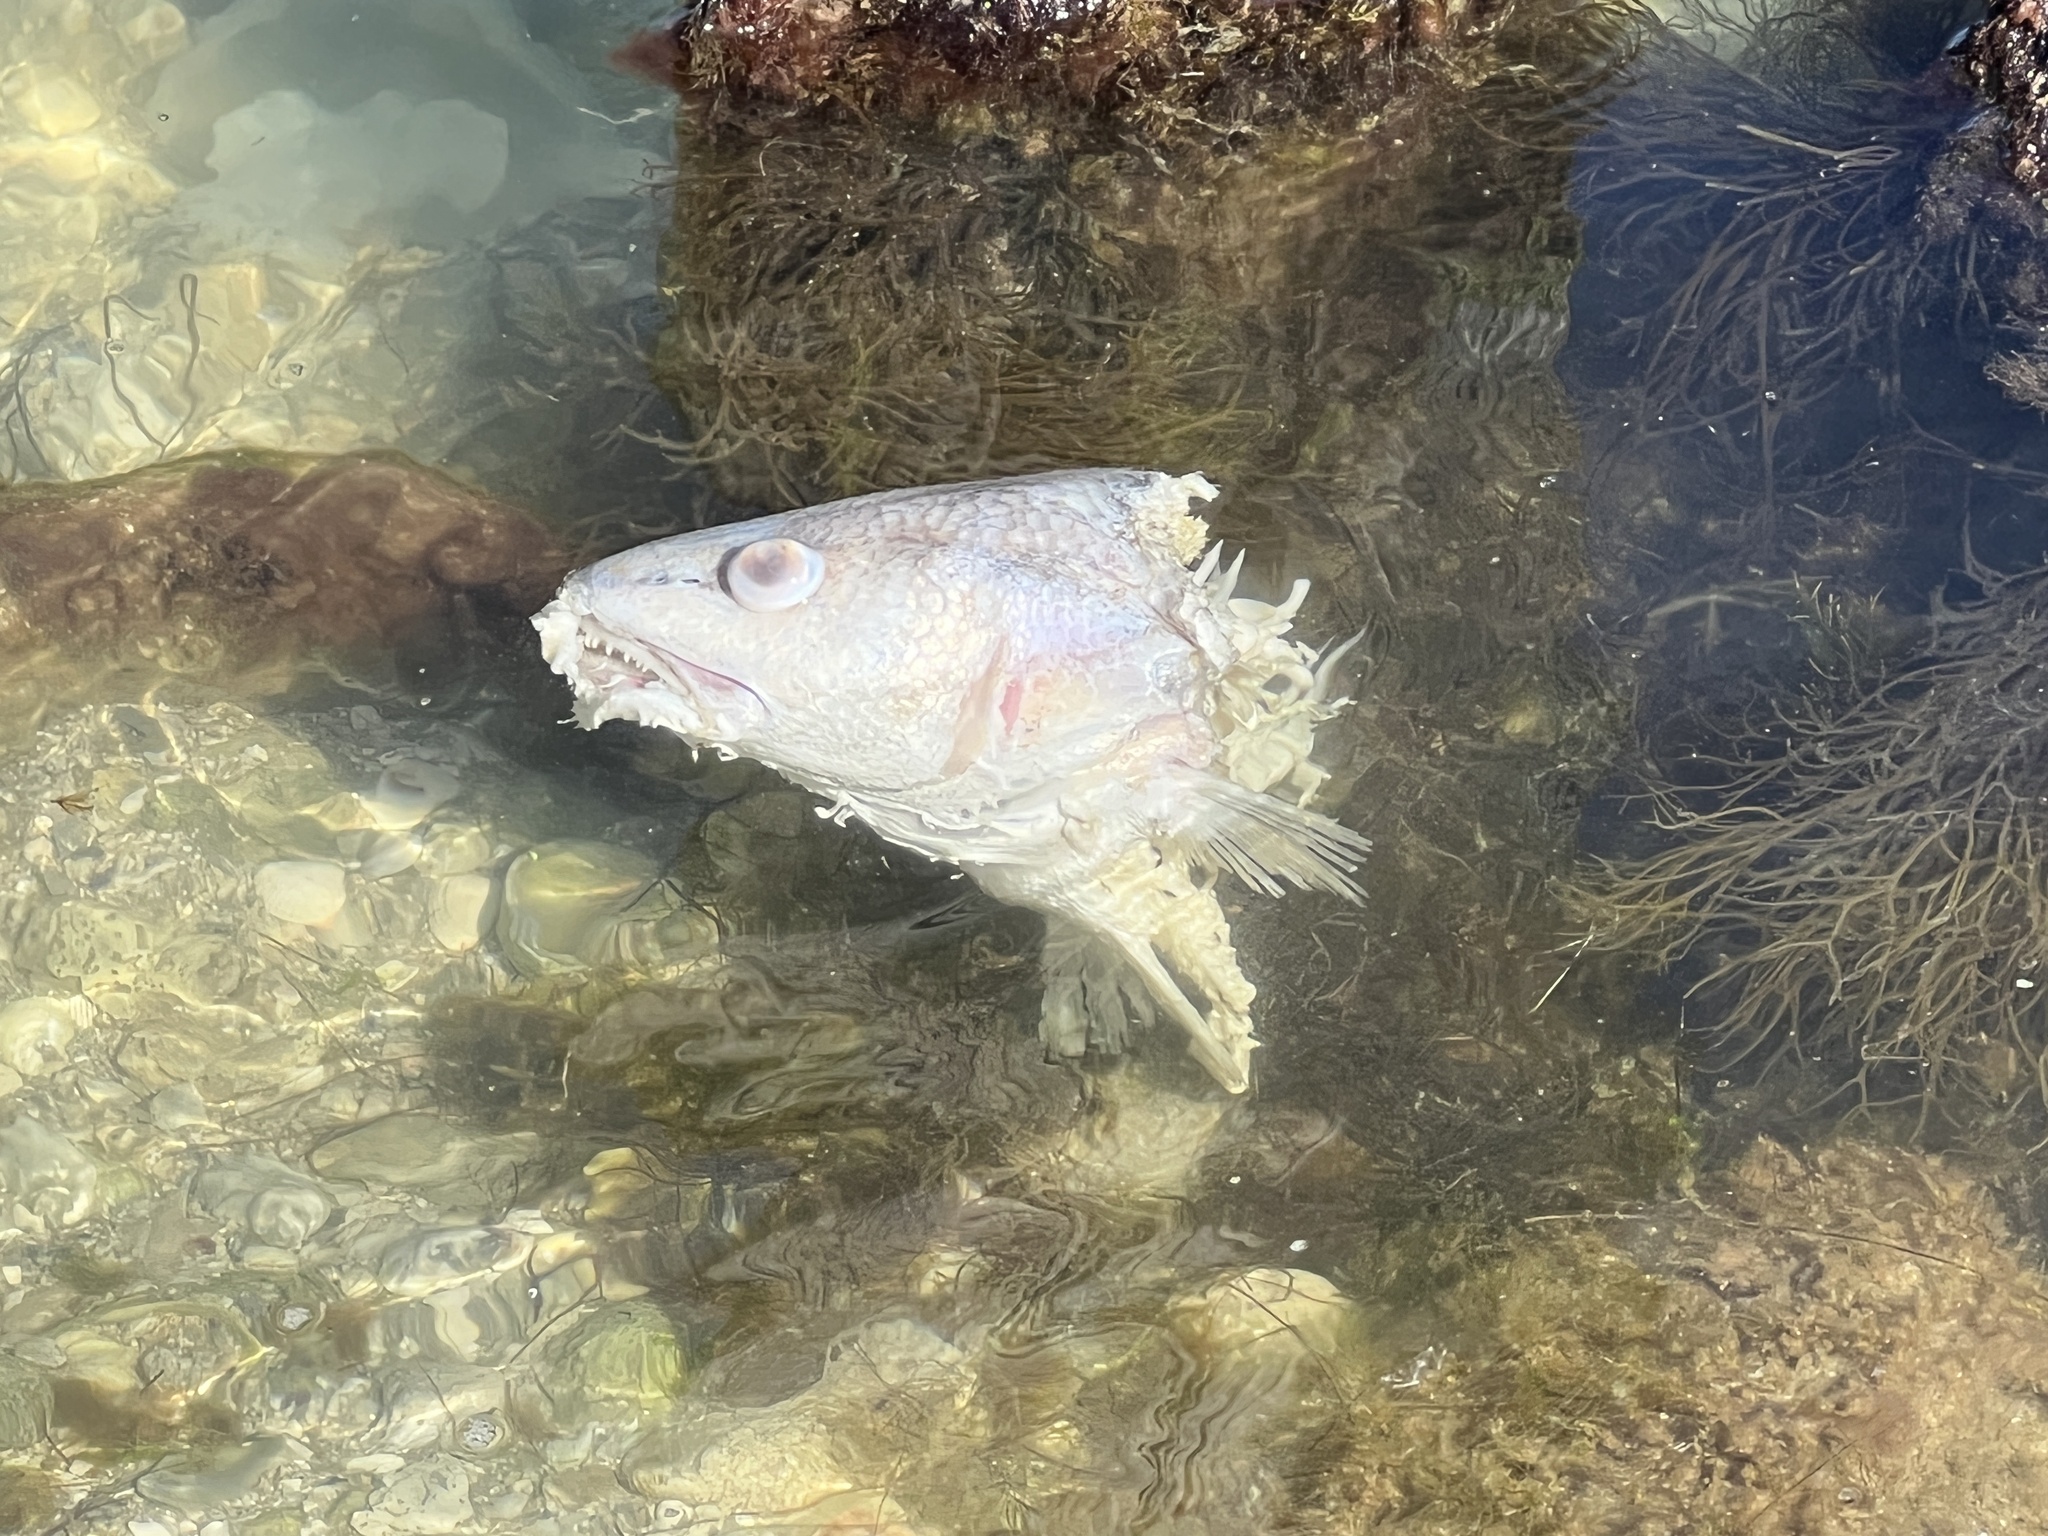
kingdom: Animalia
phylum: Chordata
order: Perciformes
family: Sciaenidae
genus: Sciaenops
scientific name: Sciaenops ocellatus
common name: Red drum
